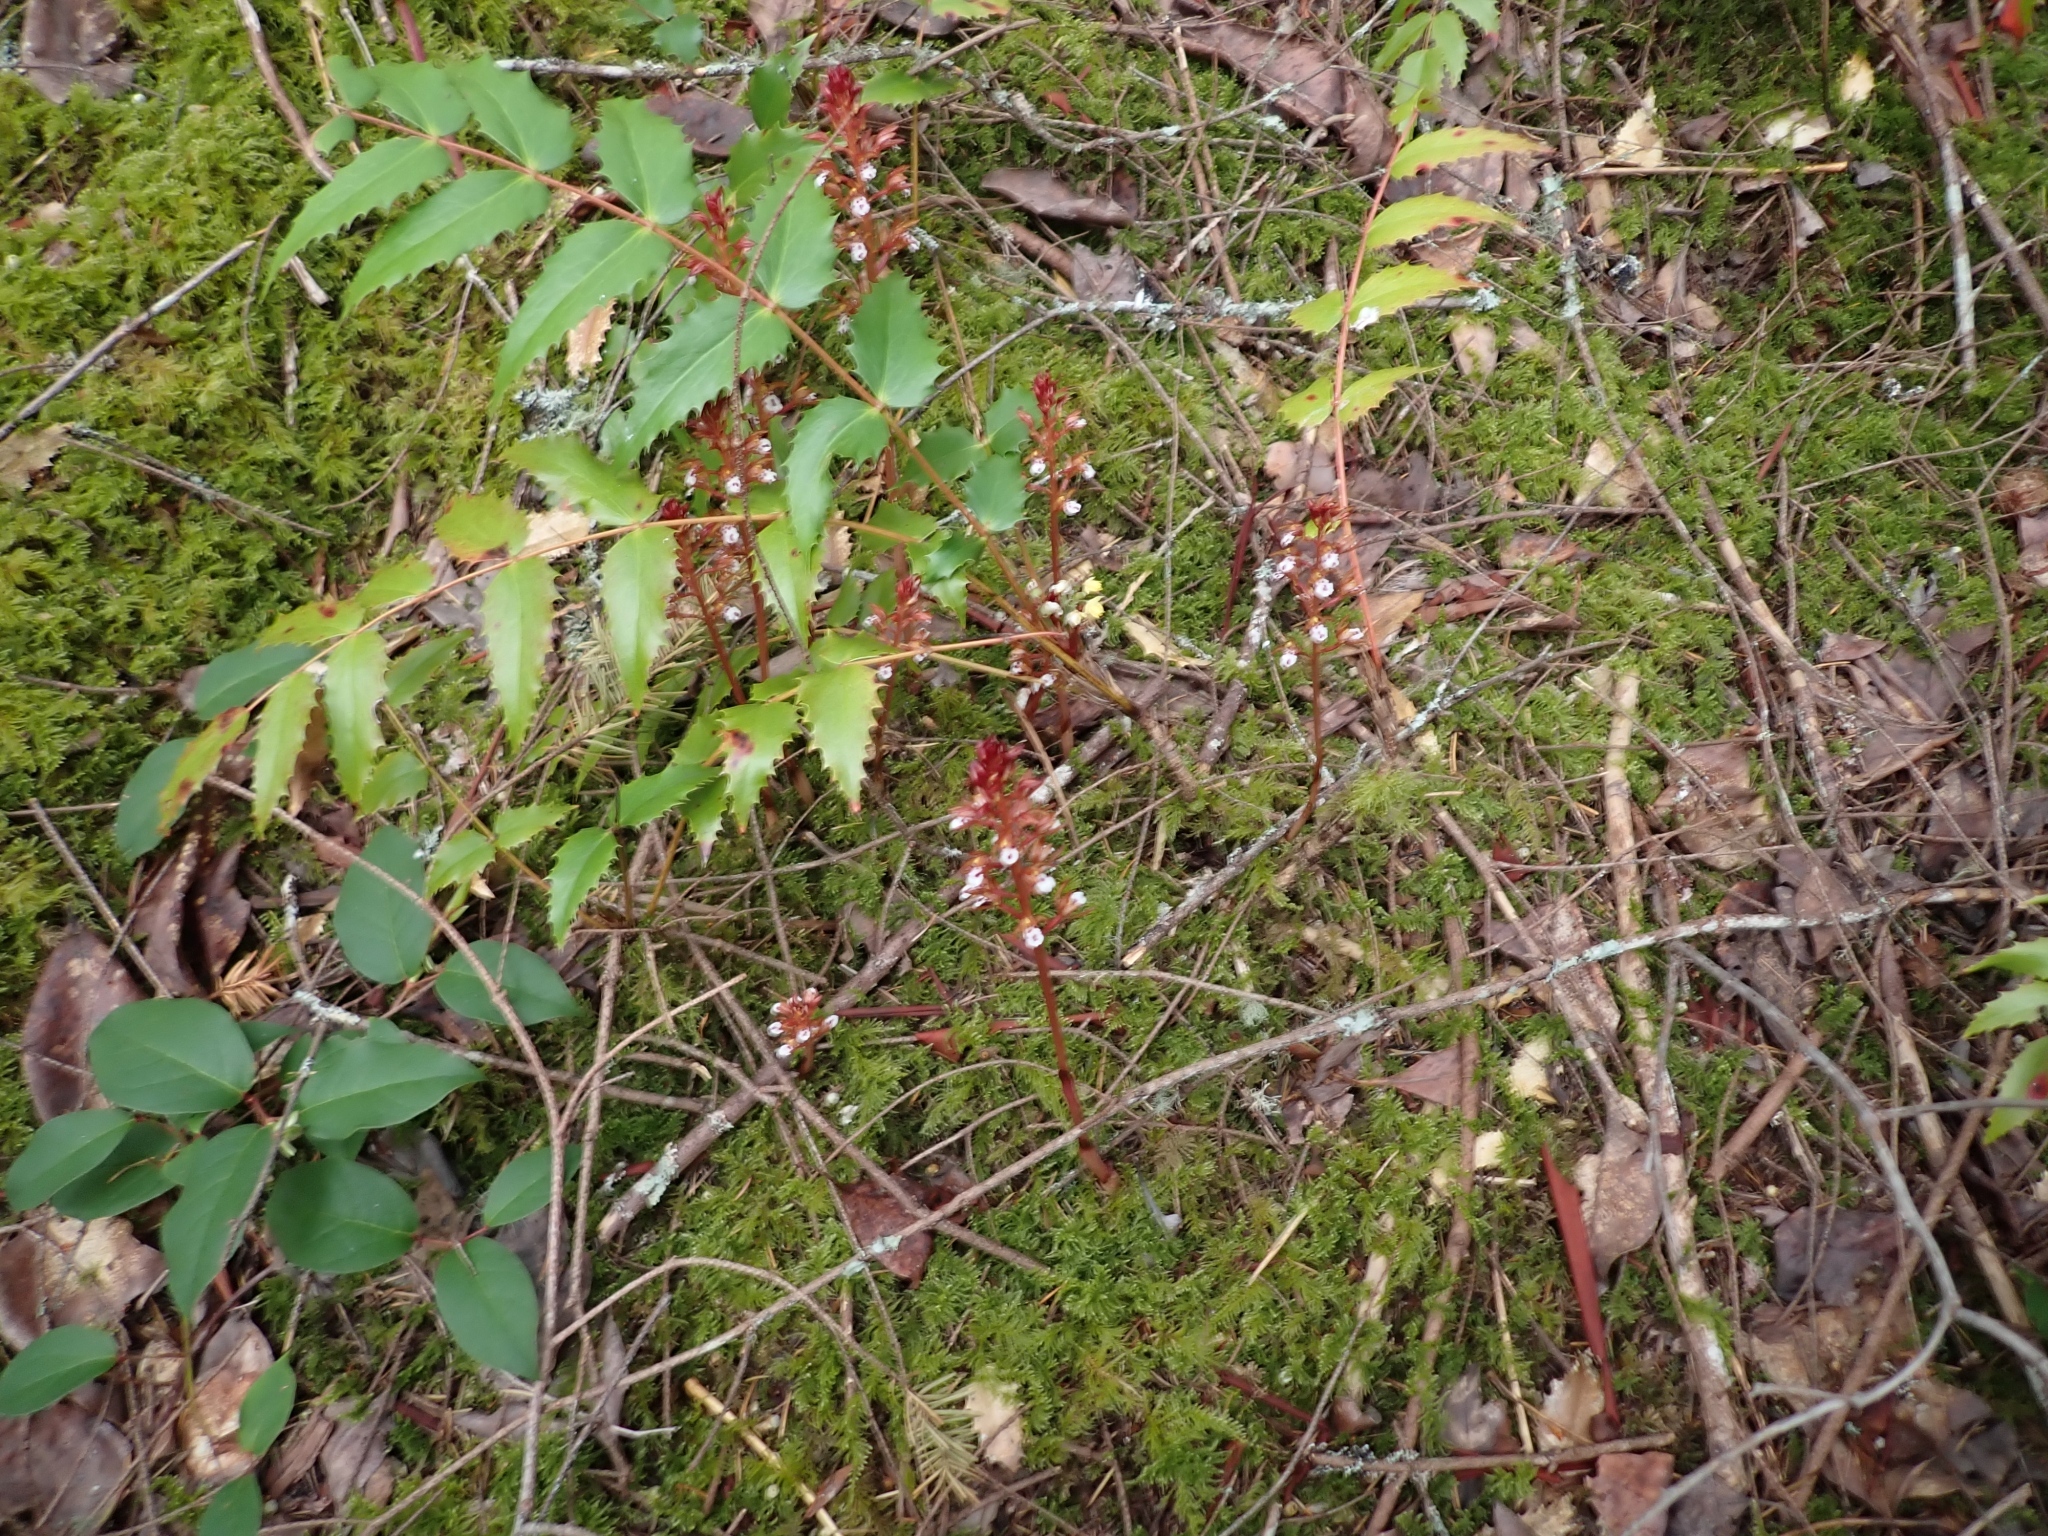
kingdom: Plantae
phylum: Tracheophyta
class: Liliopsida
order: Asparagales
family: Orchidaceae
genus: Corallorhiza
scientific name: Corallorhiza maculata
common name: Spotted coralroot
